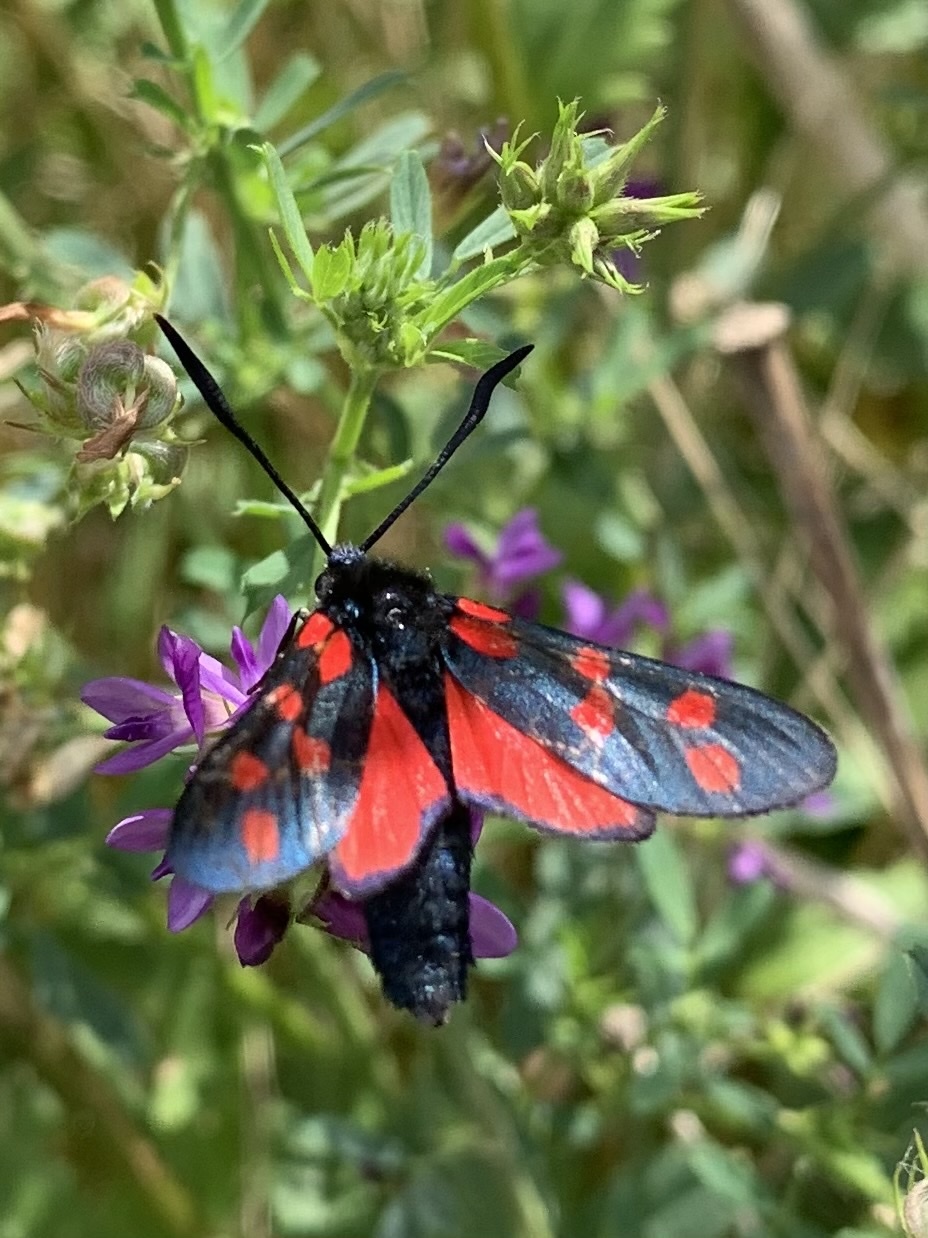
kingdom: Animalia
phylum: Arthropoda
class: Insecta
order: Lepidoptera
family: Zygaenidae
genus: Zygaena
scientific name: Zygaena filipendulae
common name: Six-spot burnet
